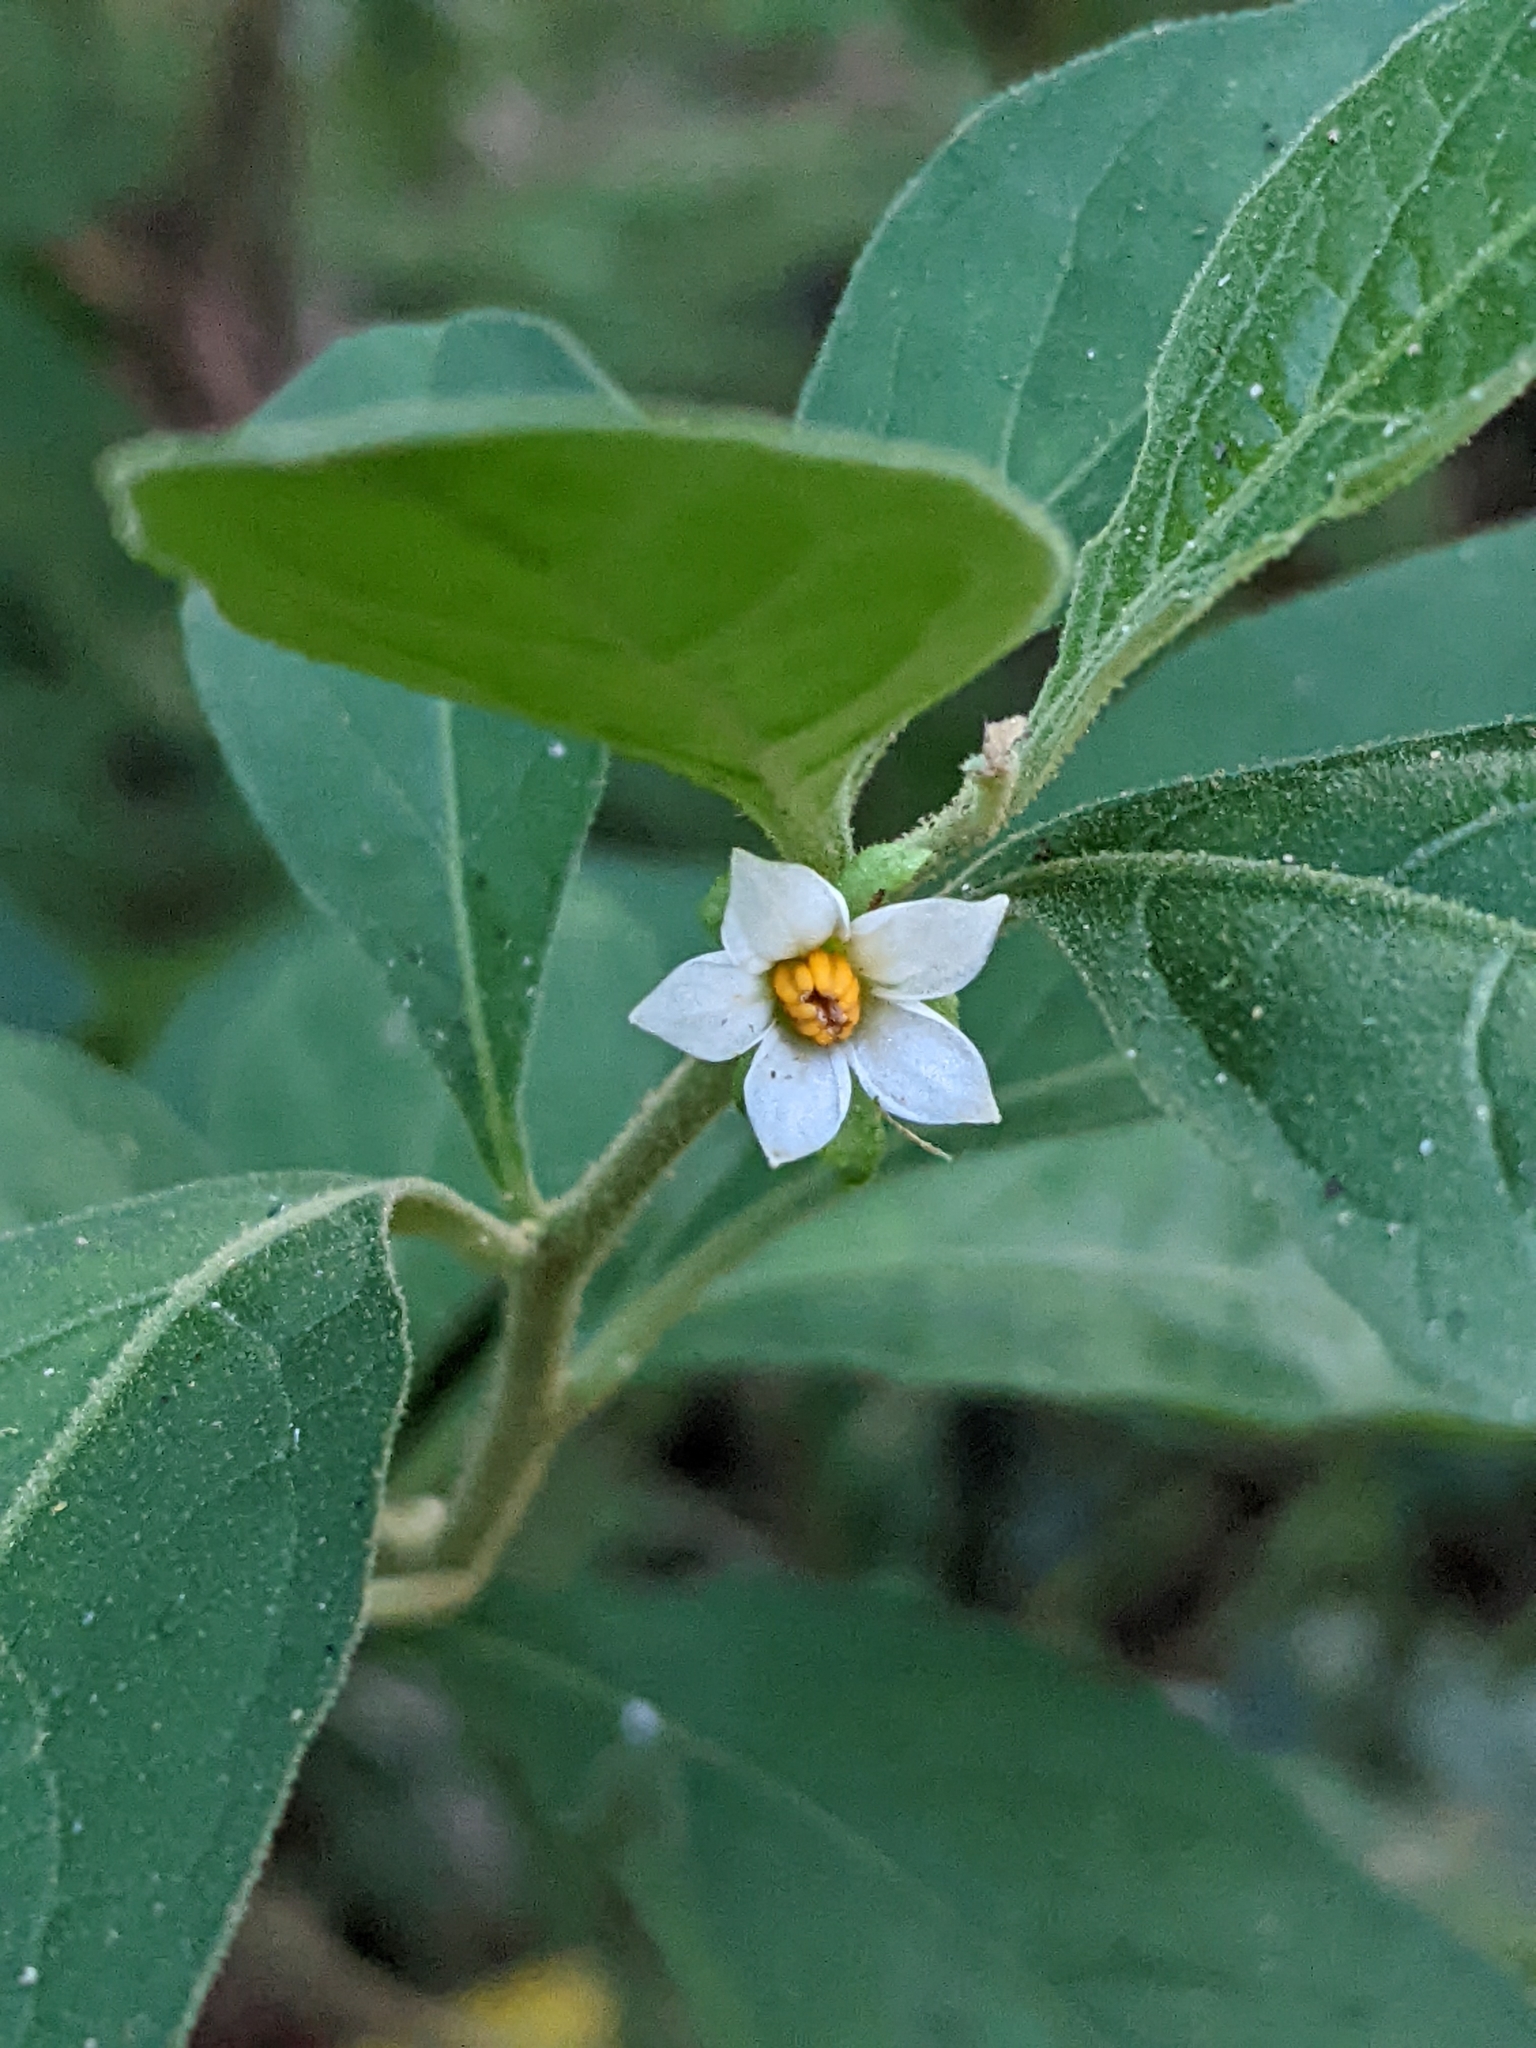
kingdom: Plantae
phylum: Tracheophyta
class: Magnoliopsida
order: Solanales
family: Solanaceae
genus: Solanum
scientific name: Solanum pseudocapsicum
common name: Jerusalem cherry
